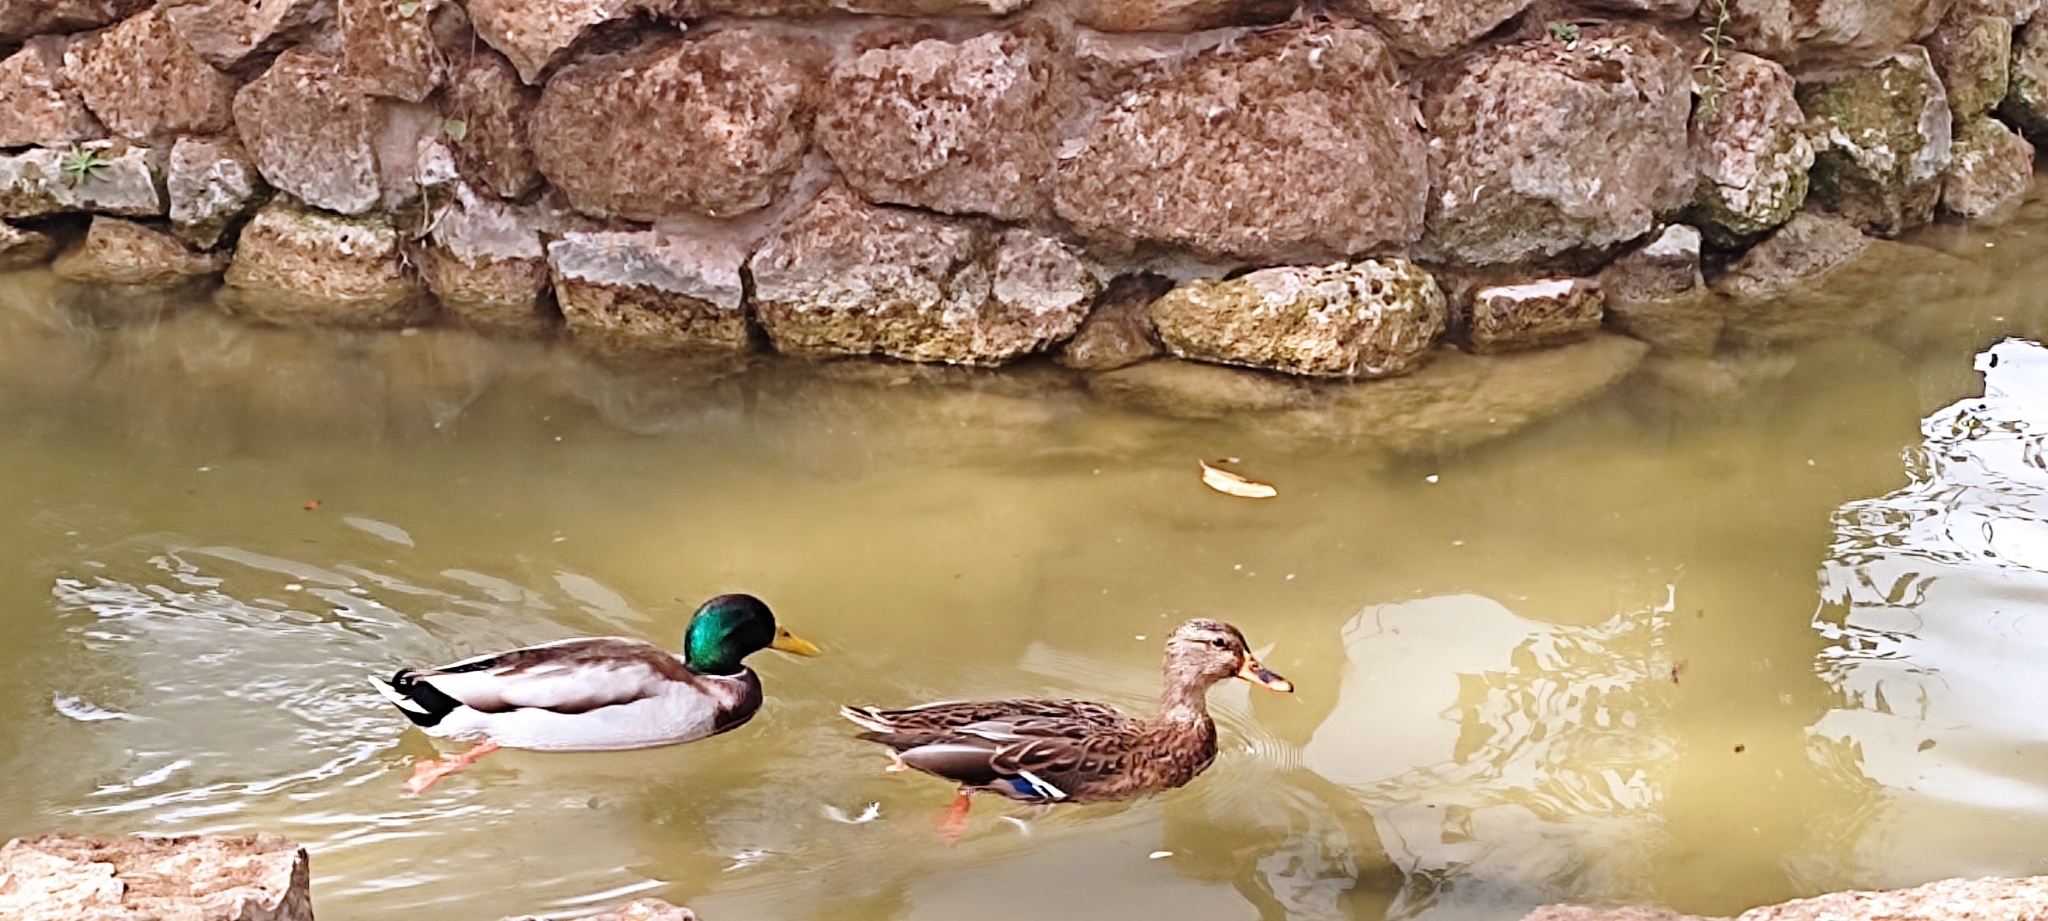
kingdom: Animalia
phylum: Chordata
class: Aves
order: Anseriformes
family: Anatidae
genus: Anas
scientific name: Anas platyrhynchos
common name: Mallard
